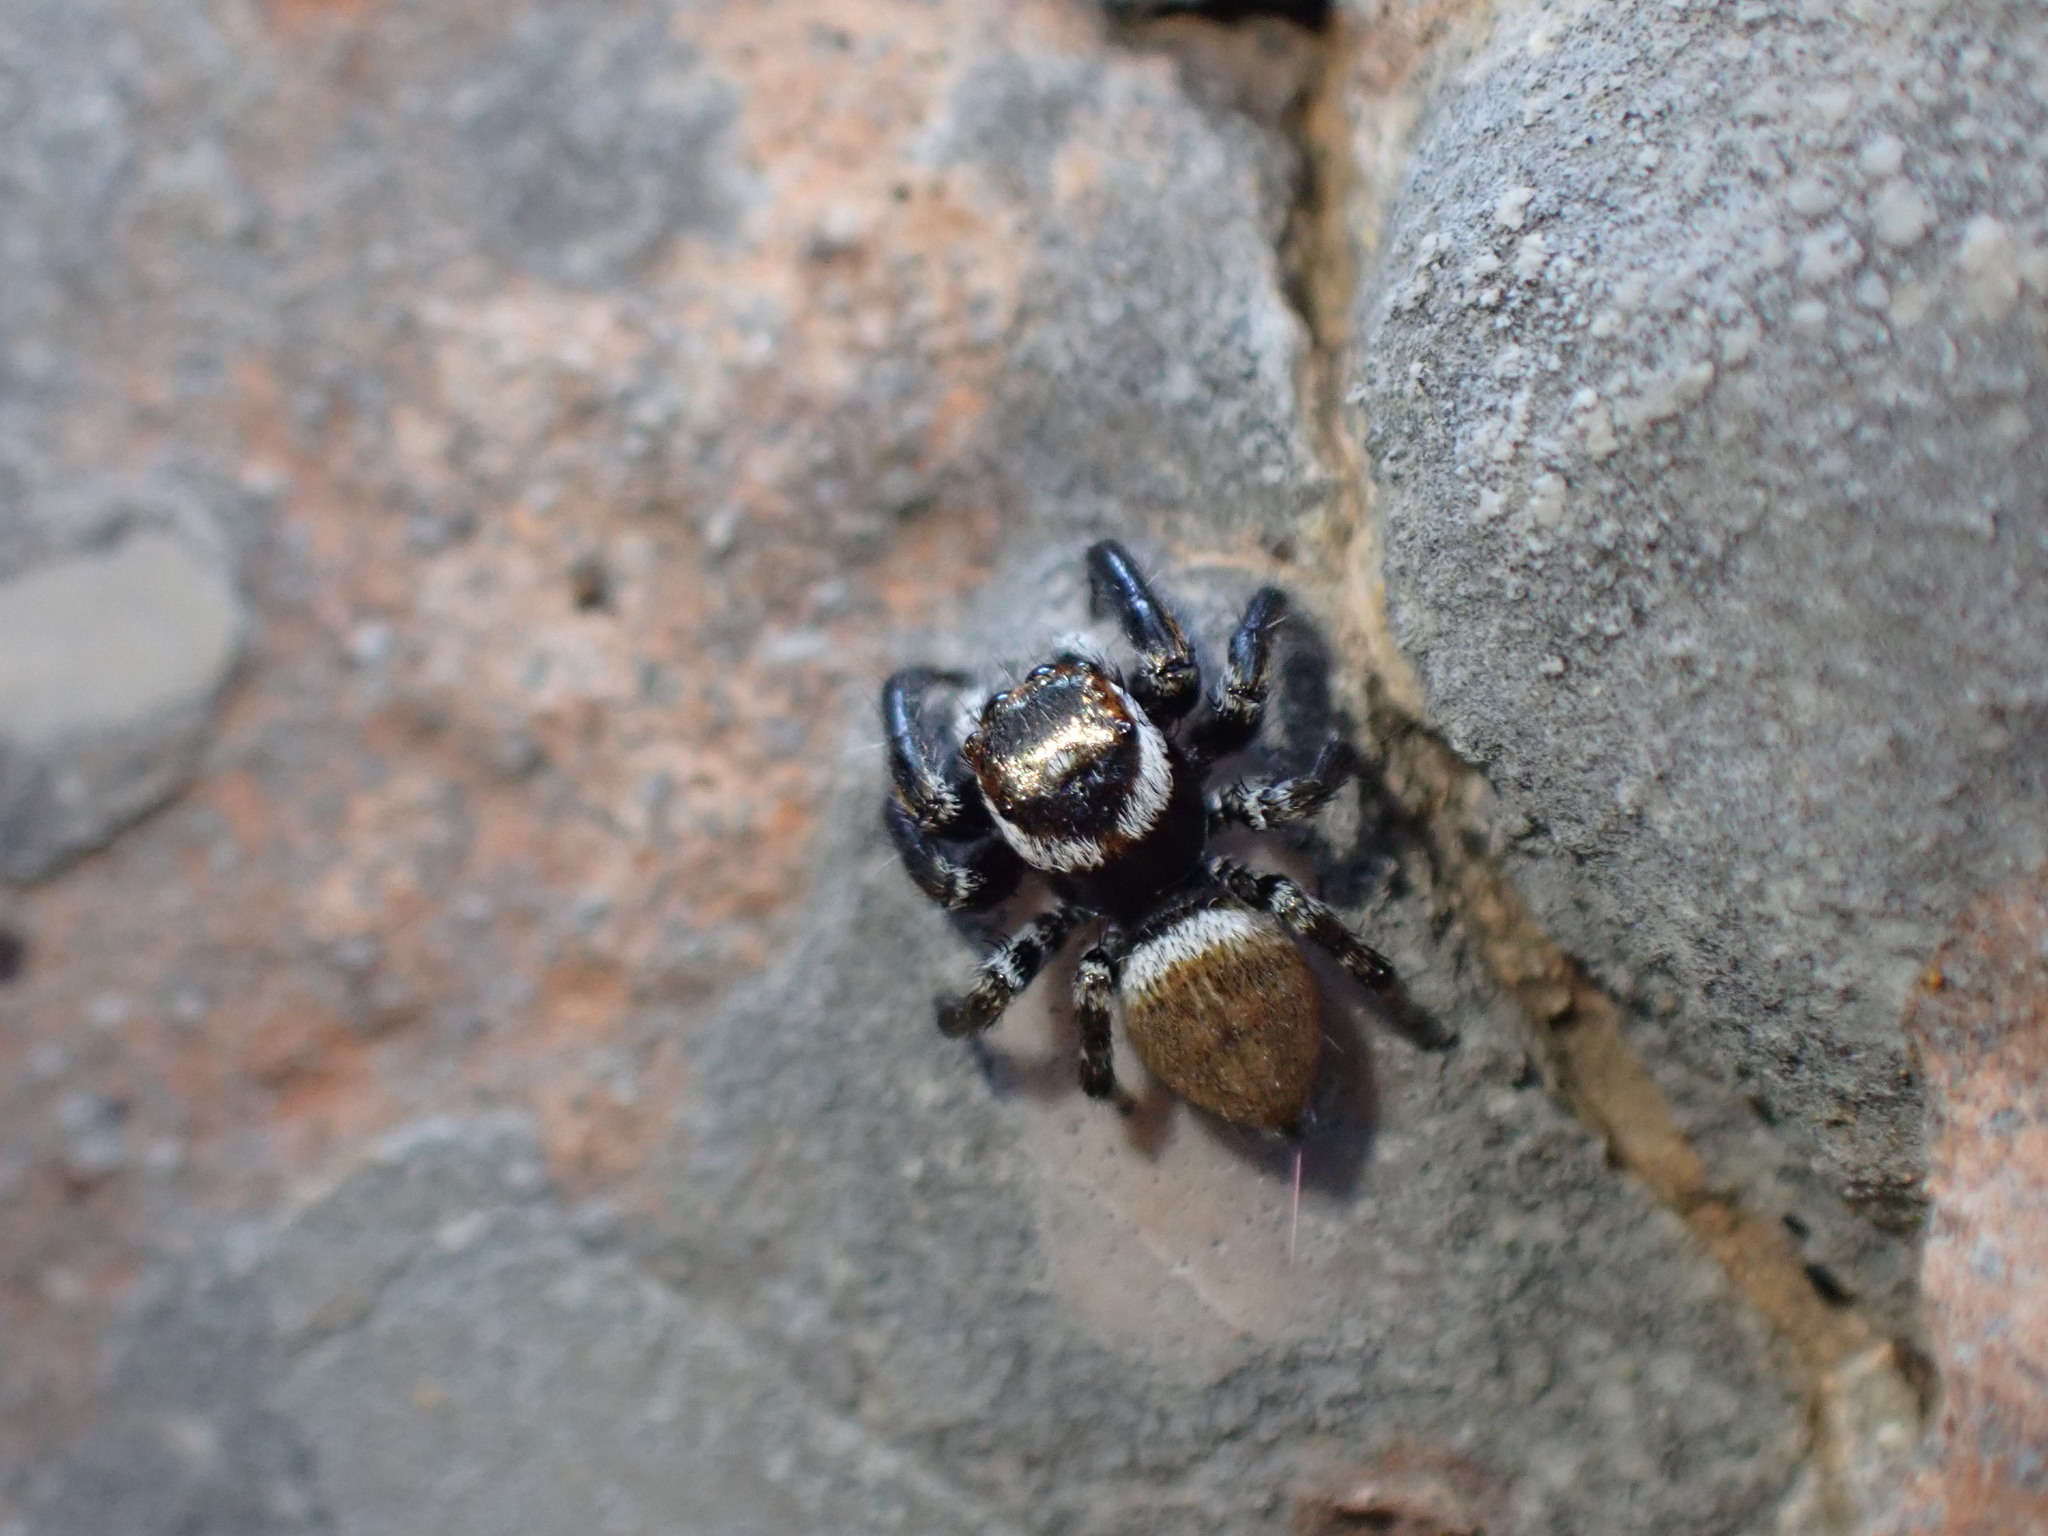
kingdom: Animalia
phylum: Arthropoda
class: Arachnida
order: Araneae
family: Salticidae
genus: Evarcha
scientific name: Evarcha jucunda
